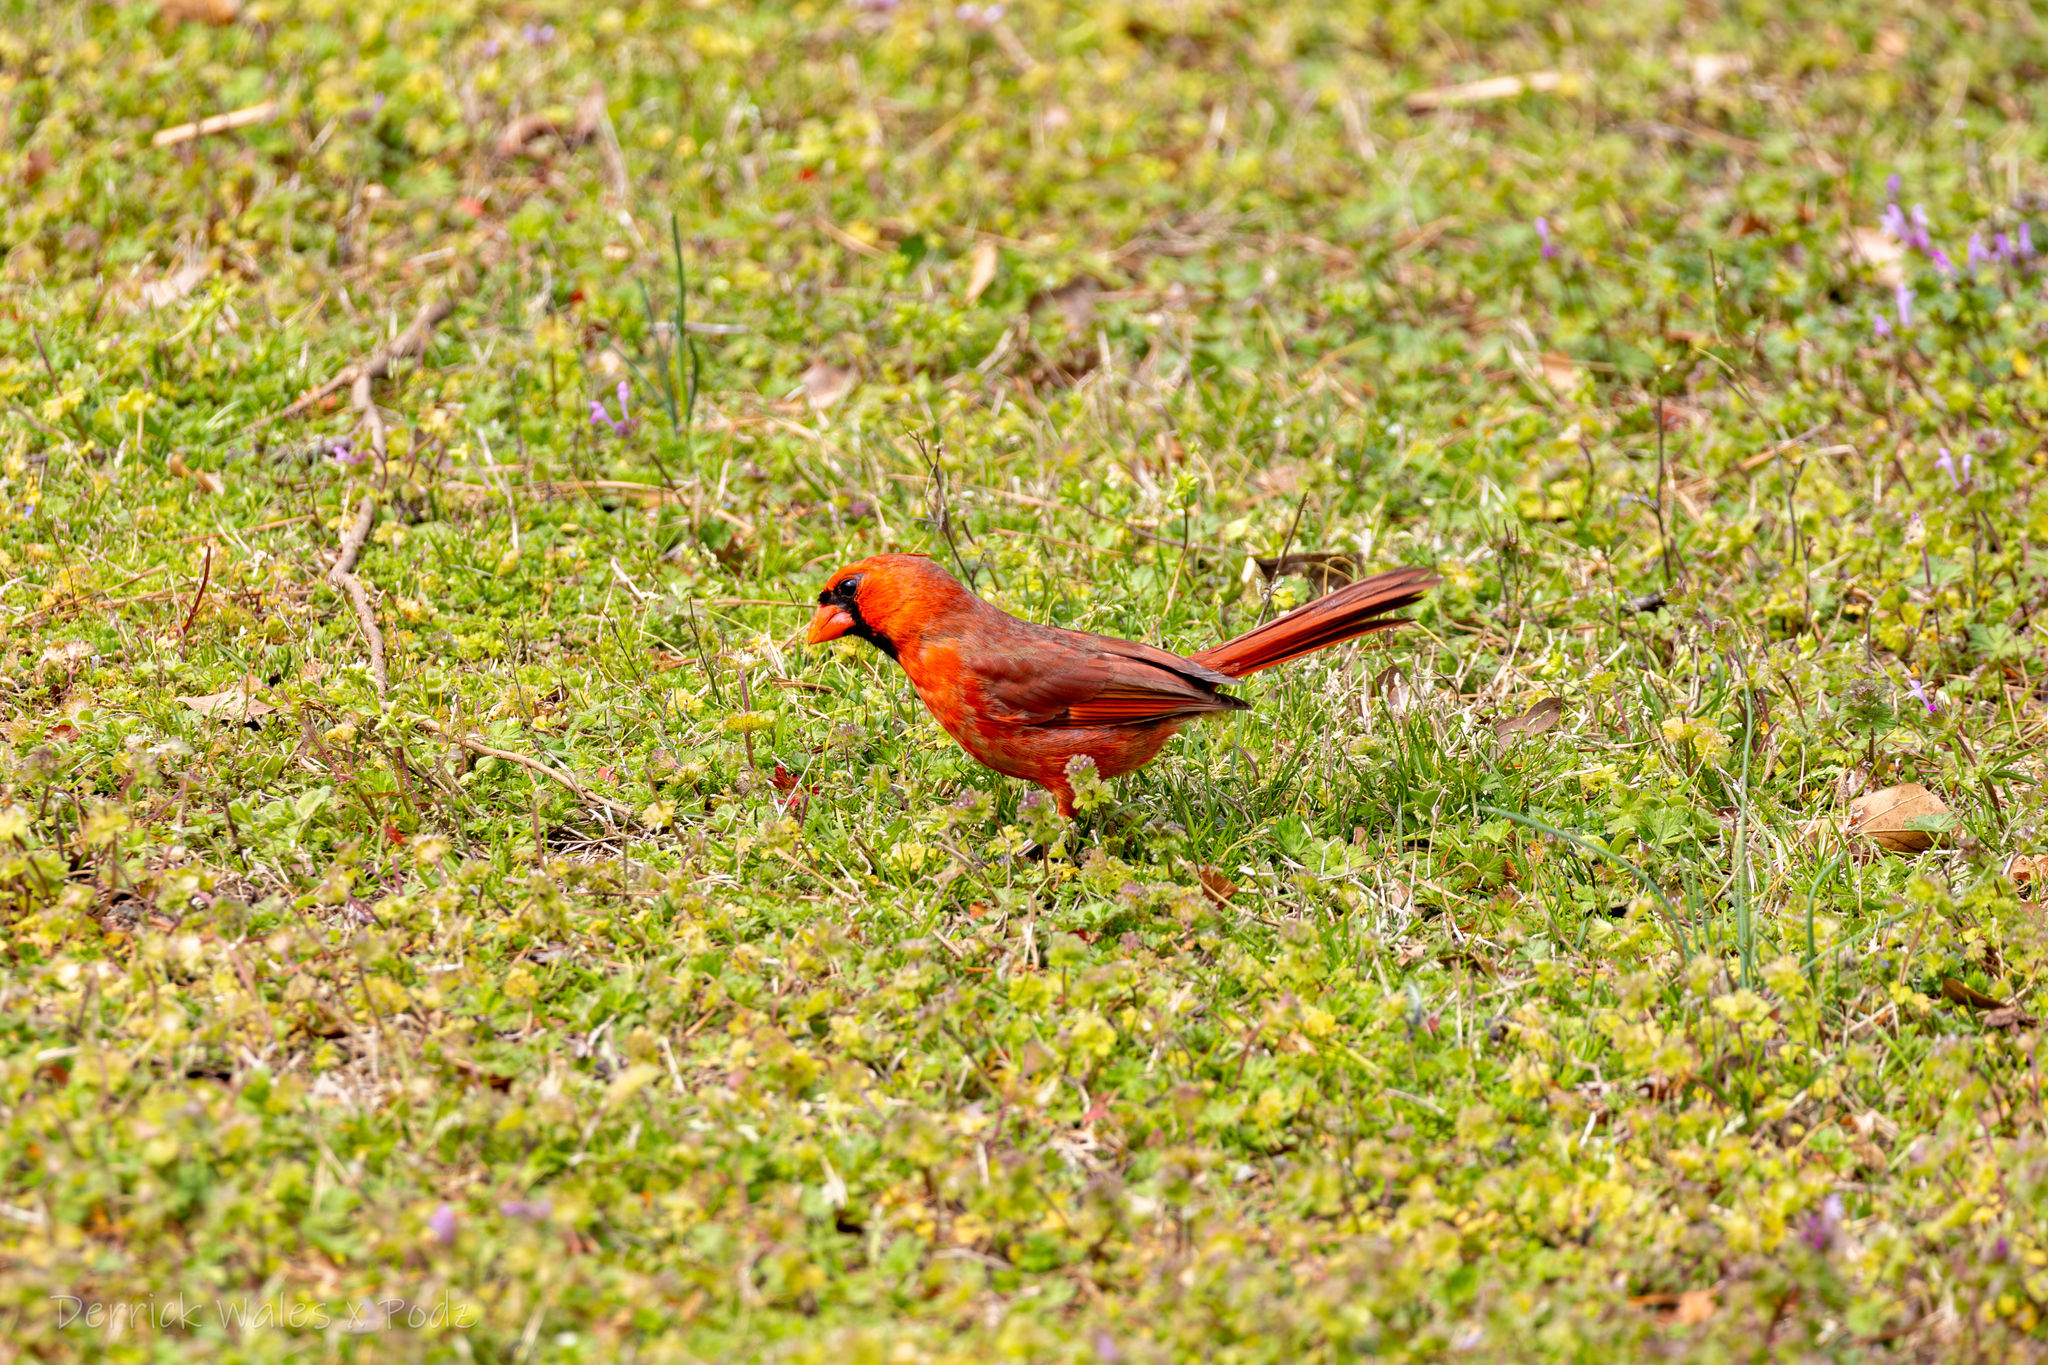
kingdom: Animalia
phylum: Chordata
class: Aves
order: Passeriformes
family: Cardinalidae
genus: Cardinalis
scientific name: Cardinalis cardinalis
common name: Northern cardinal
